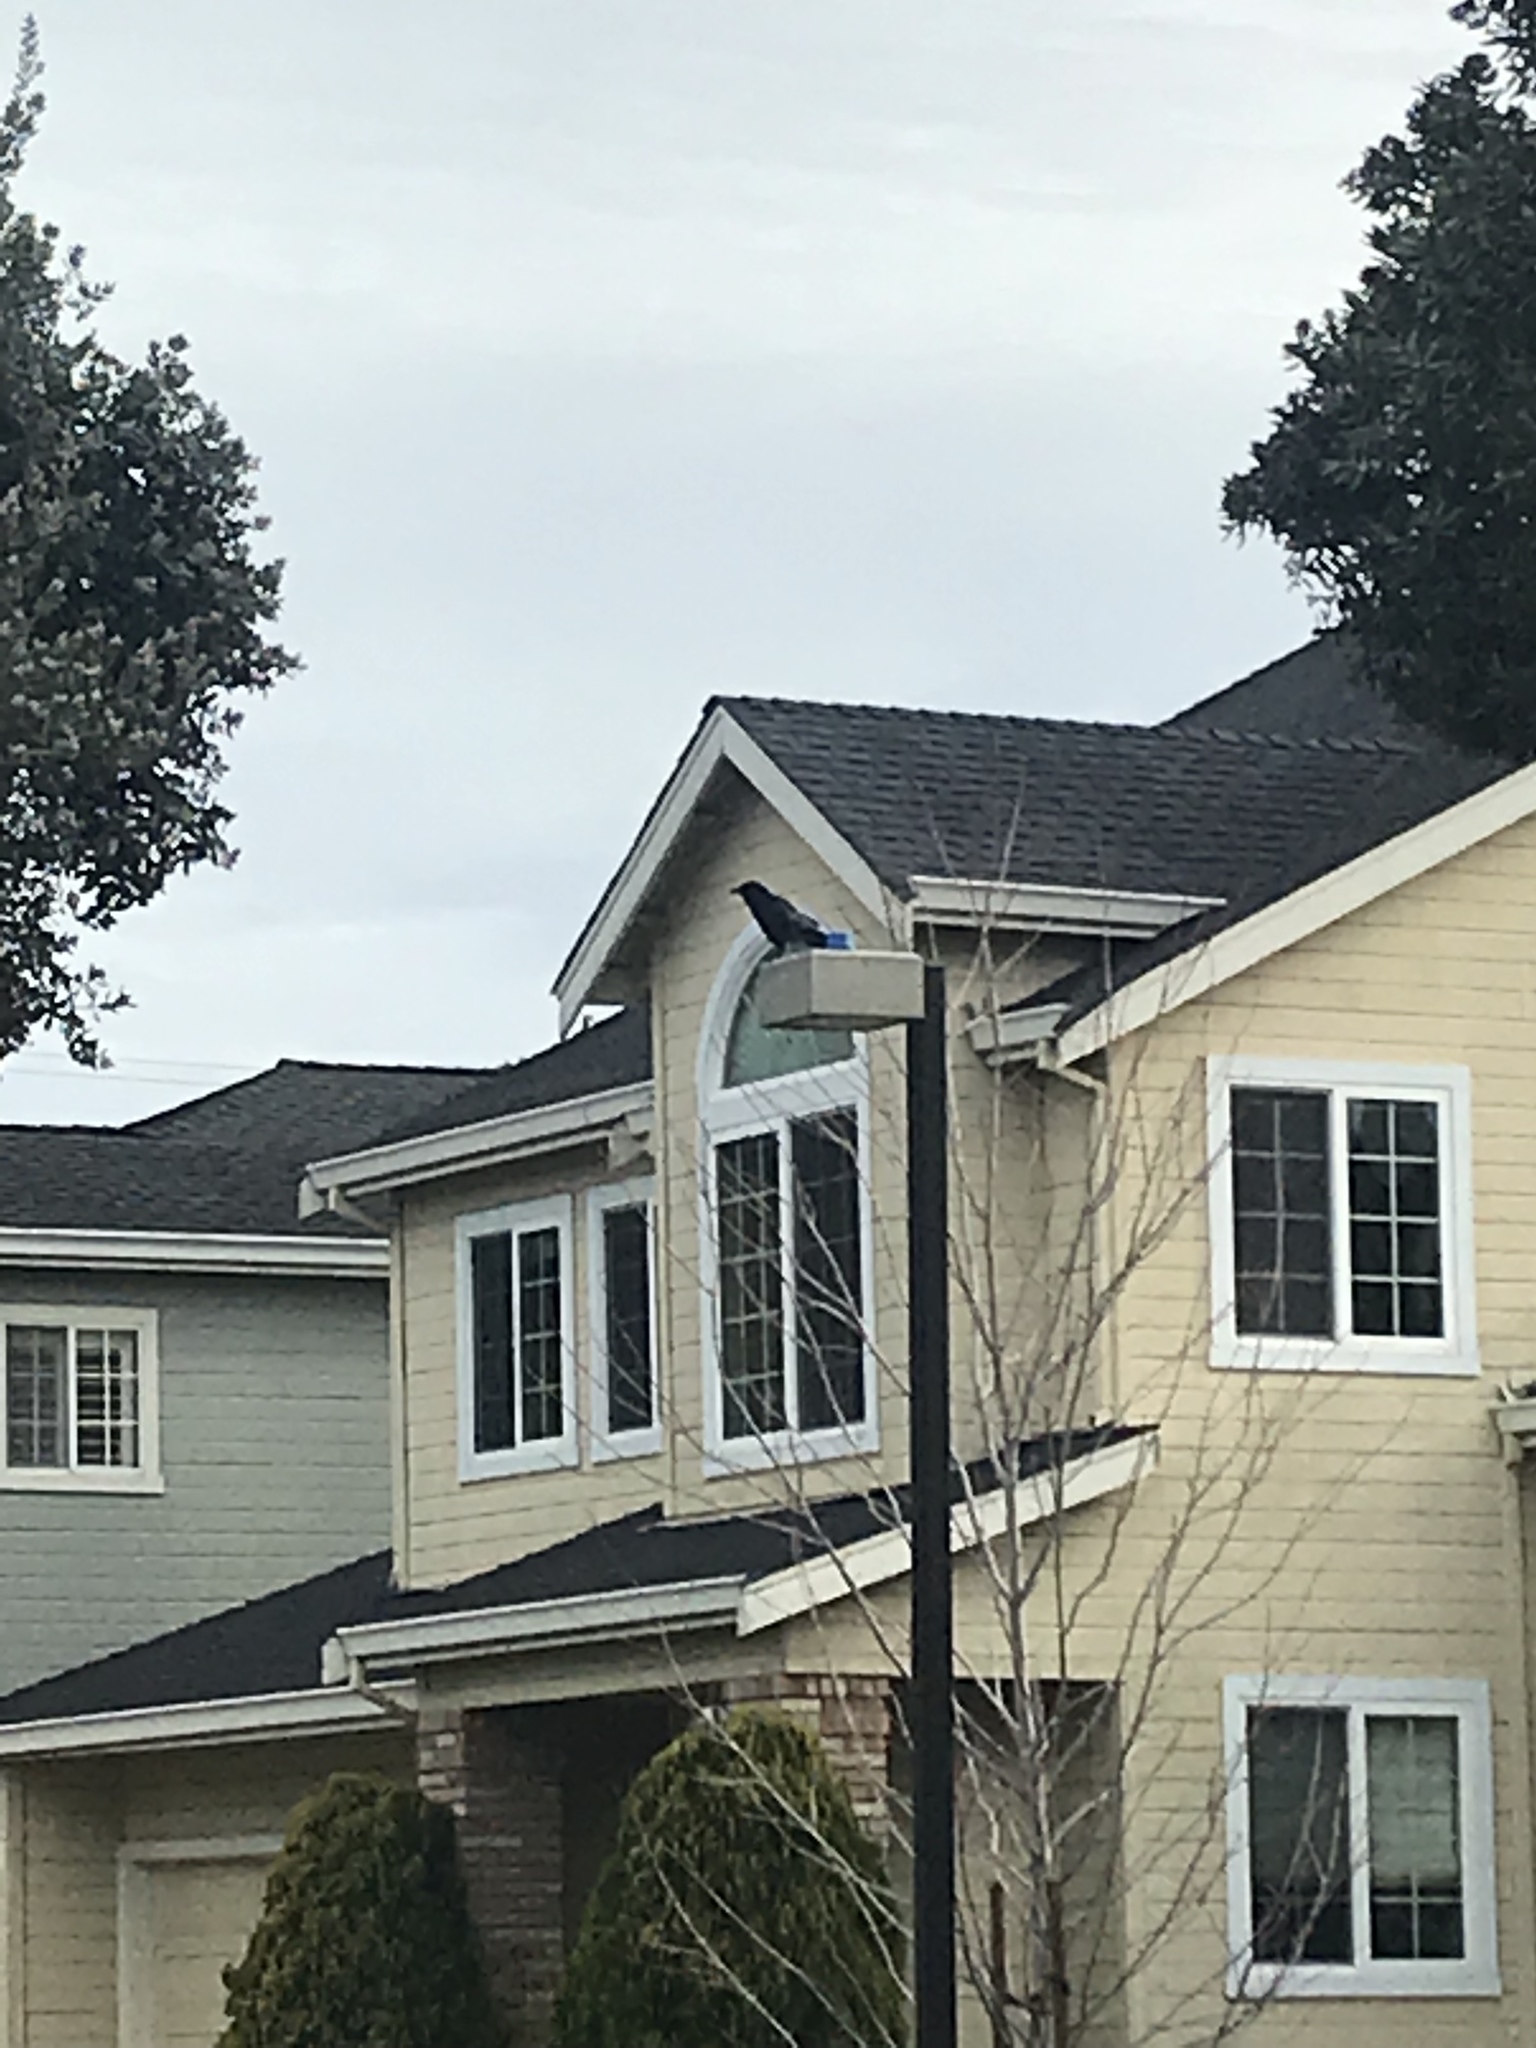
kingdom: Animalia
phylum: Chordata
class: Aves
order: Passeriformes
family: Corvidae
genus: Corvus
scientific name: Corvus brachyrhynchos
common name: American crow
